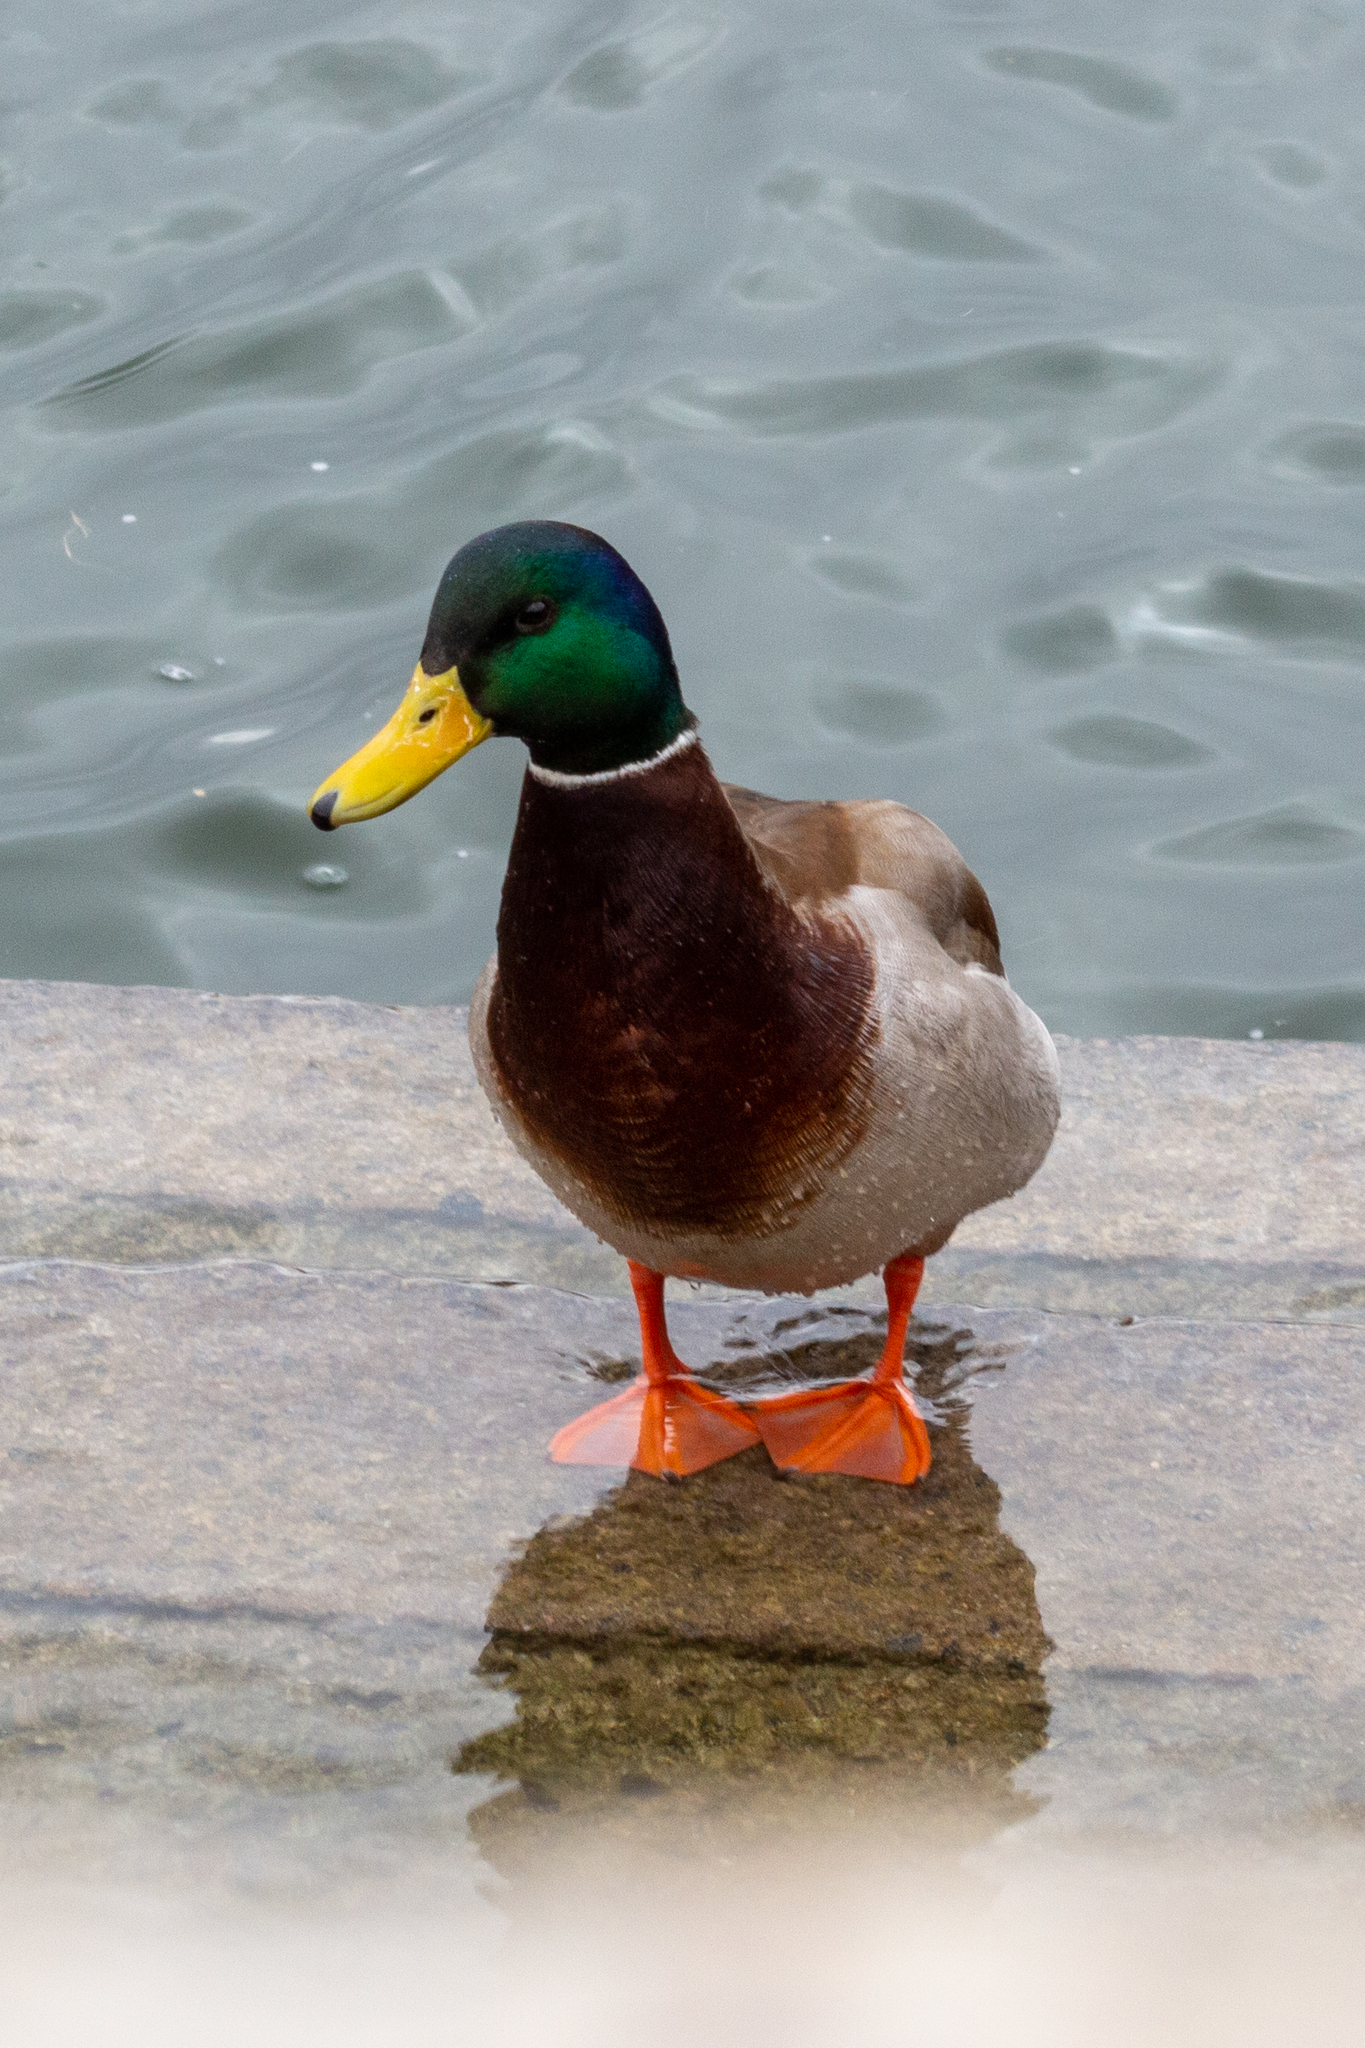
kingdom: Animalia
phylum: Chordata
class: Aves
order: Anseriformes
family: Anatidae
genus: Anas
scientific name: Anas platyrhynchos
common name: Mallard
